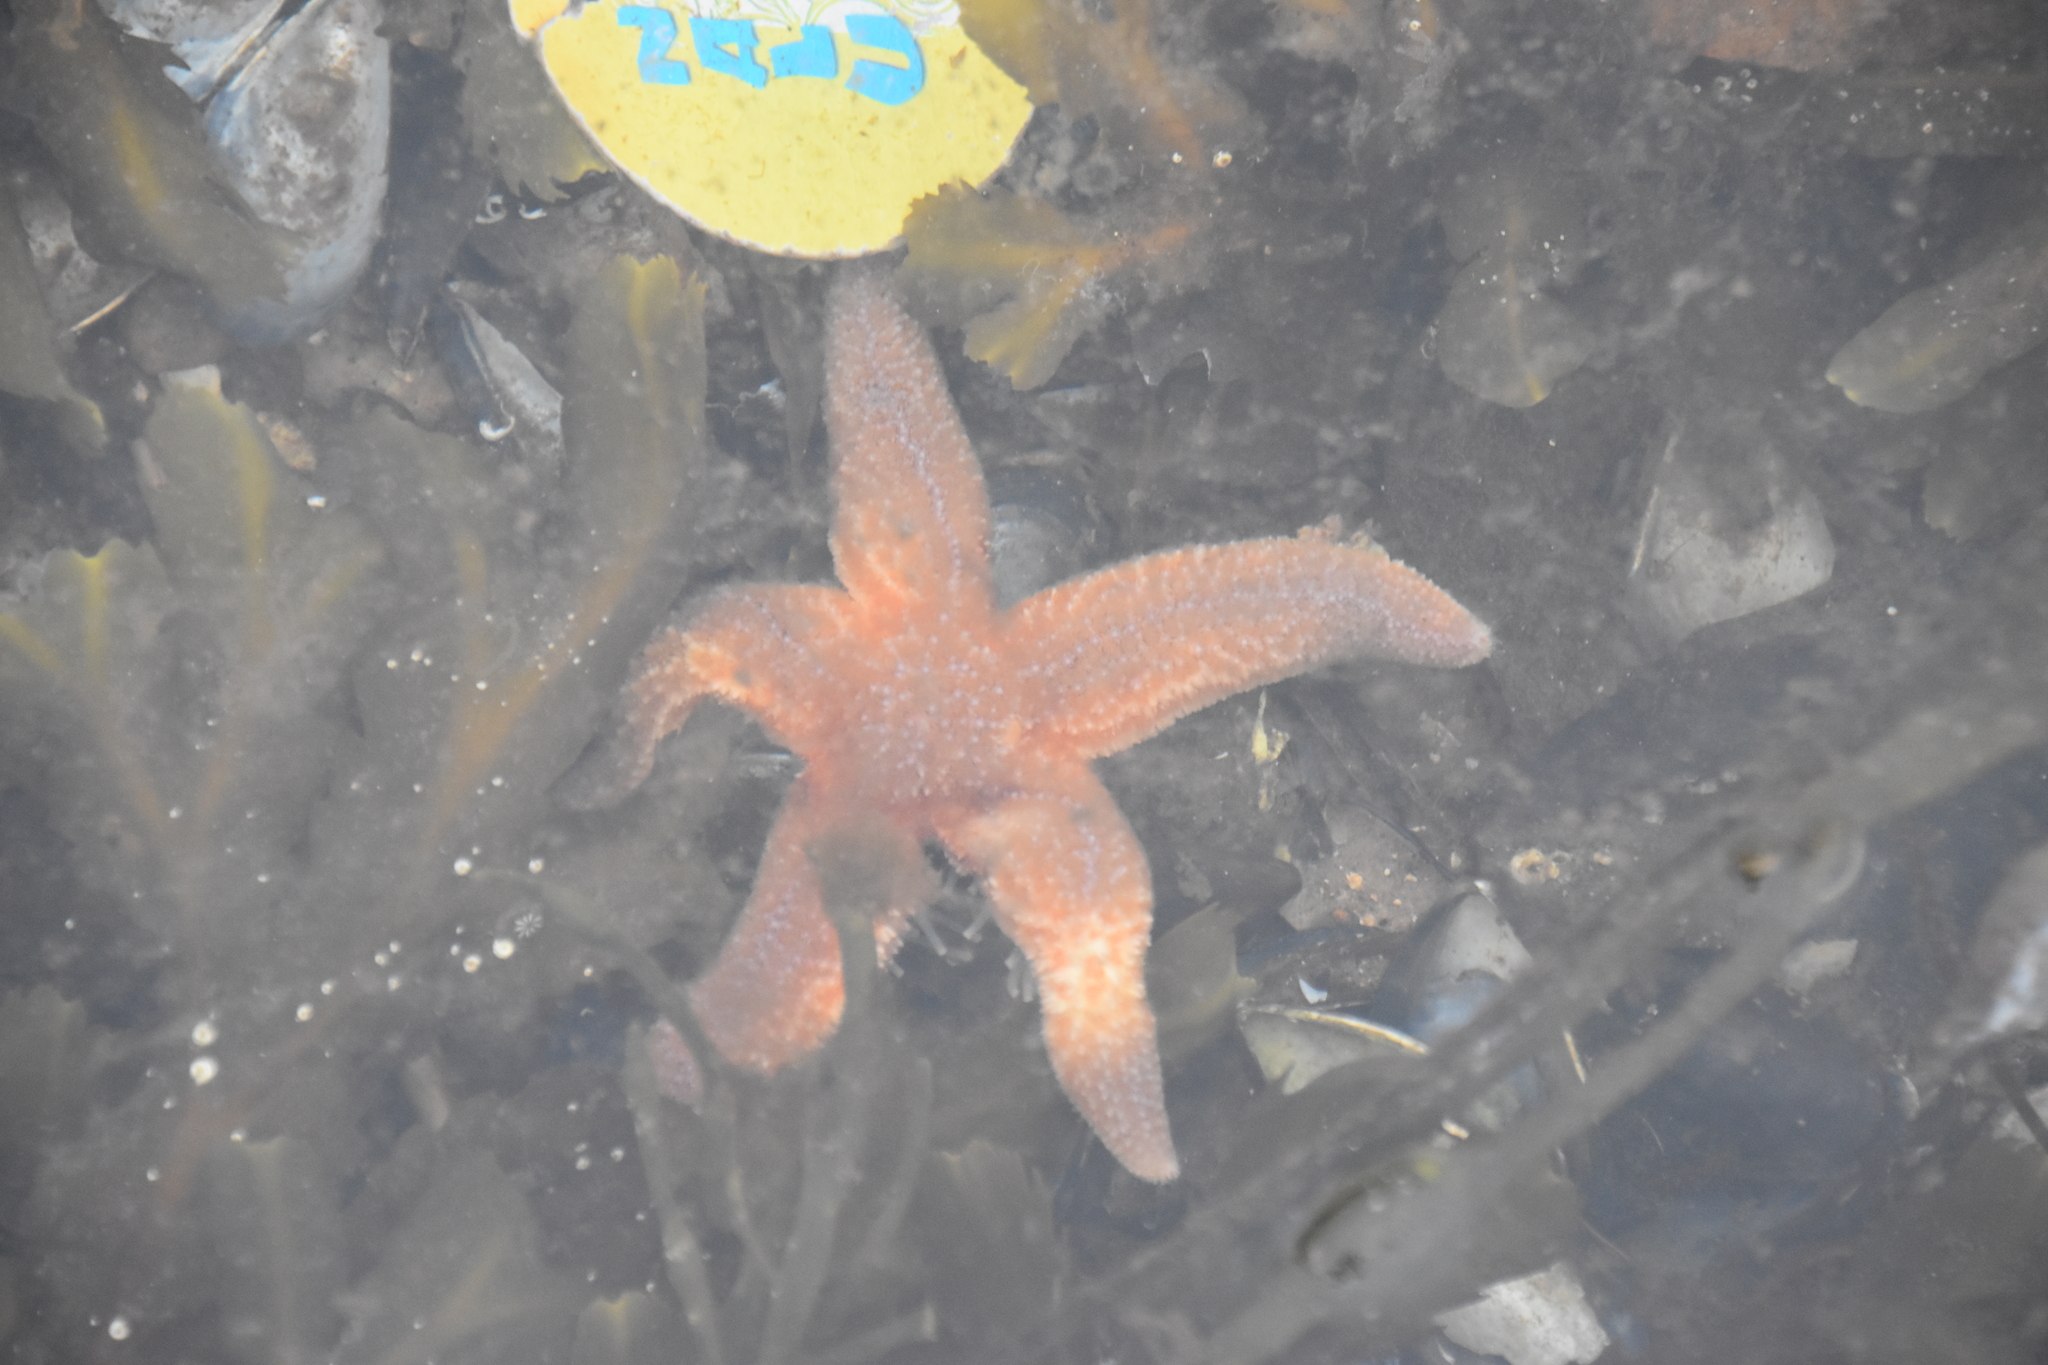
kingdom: Animalia
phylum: Echinodermata
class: Asteroidea
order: Forcipulatida
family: Asteriidae
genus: Asterias
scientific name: Asterias rubens
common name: Common starfish
